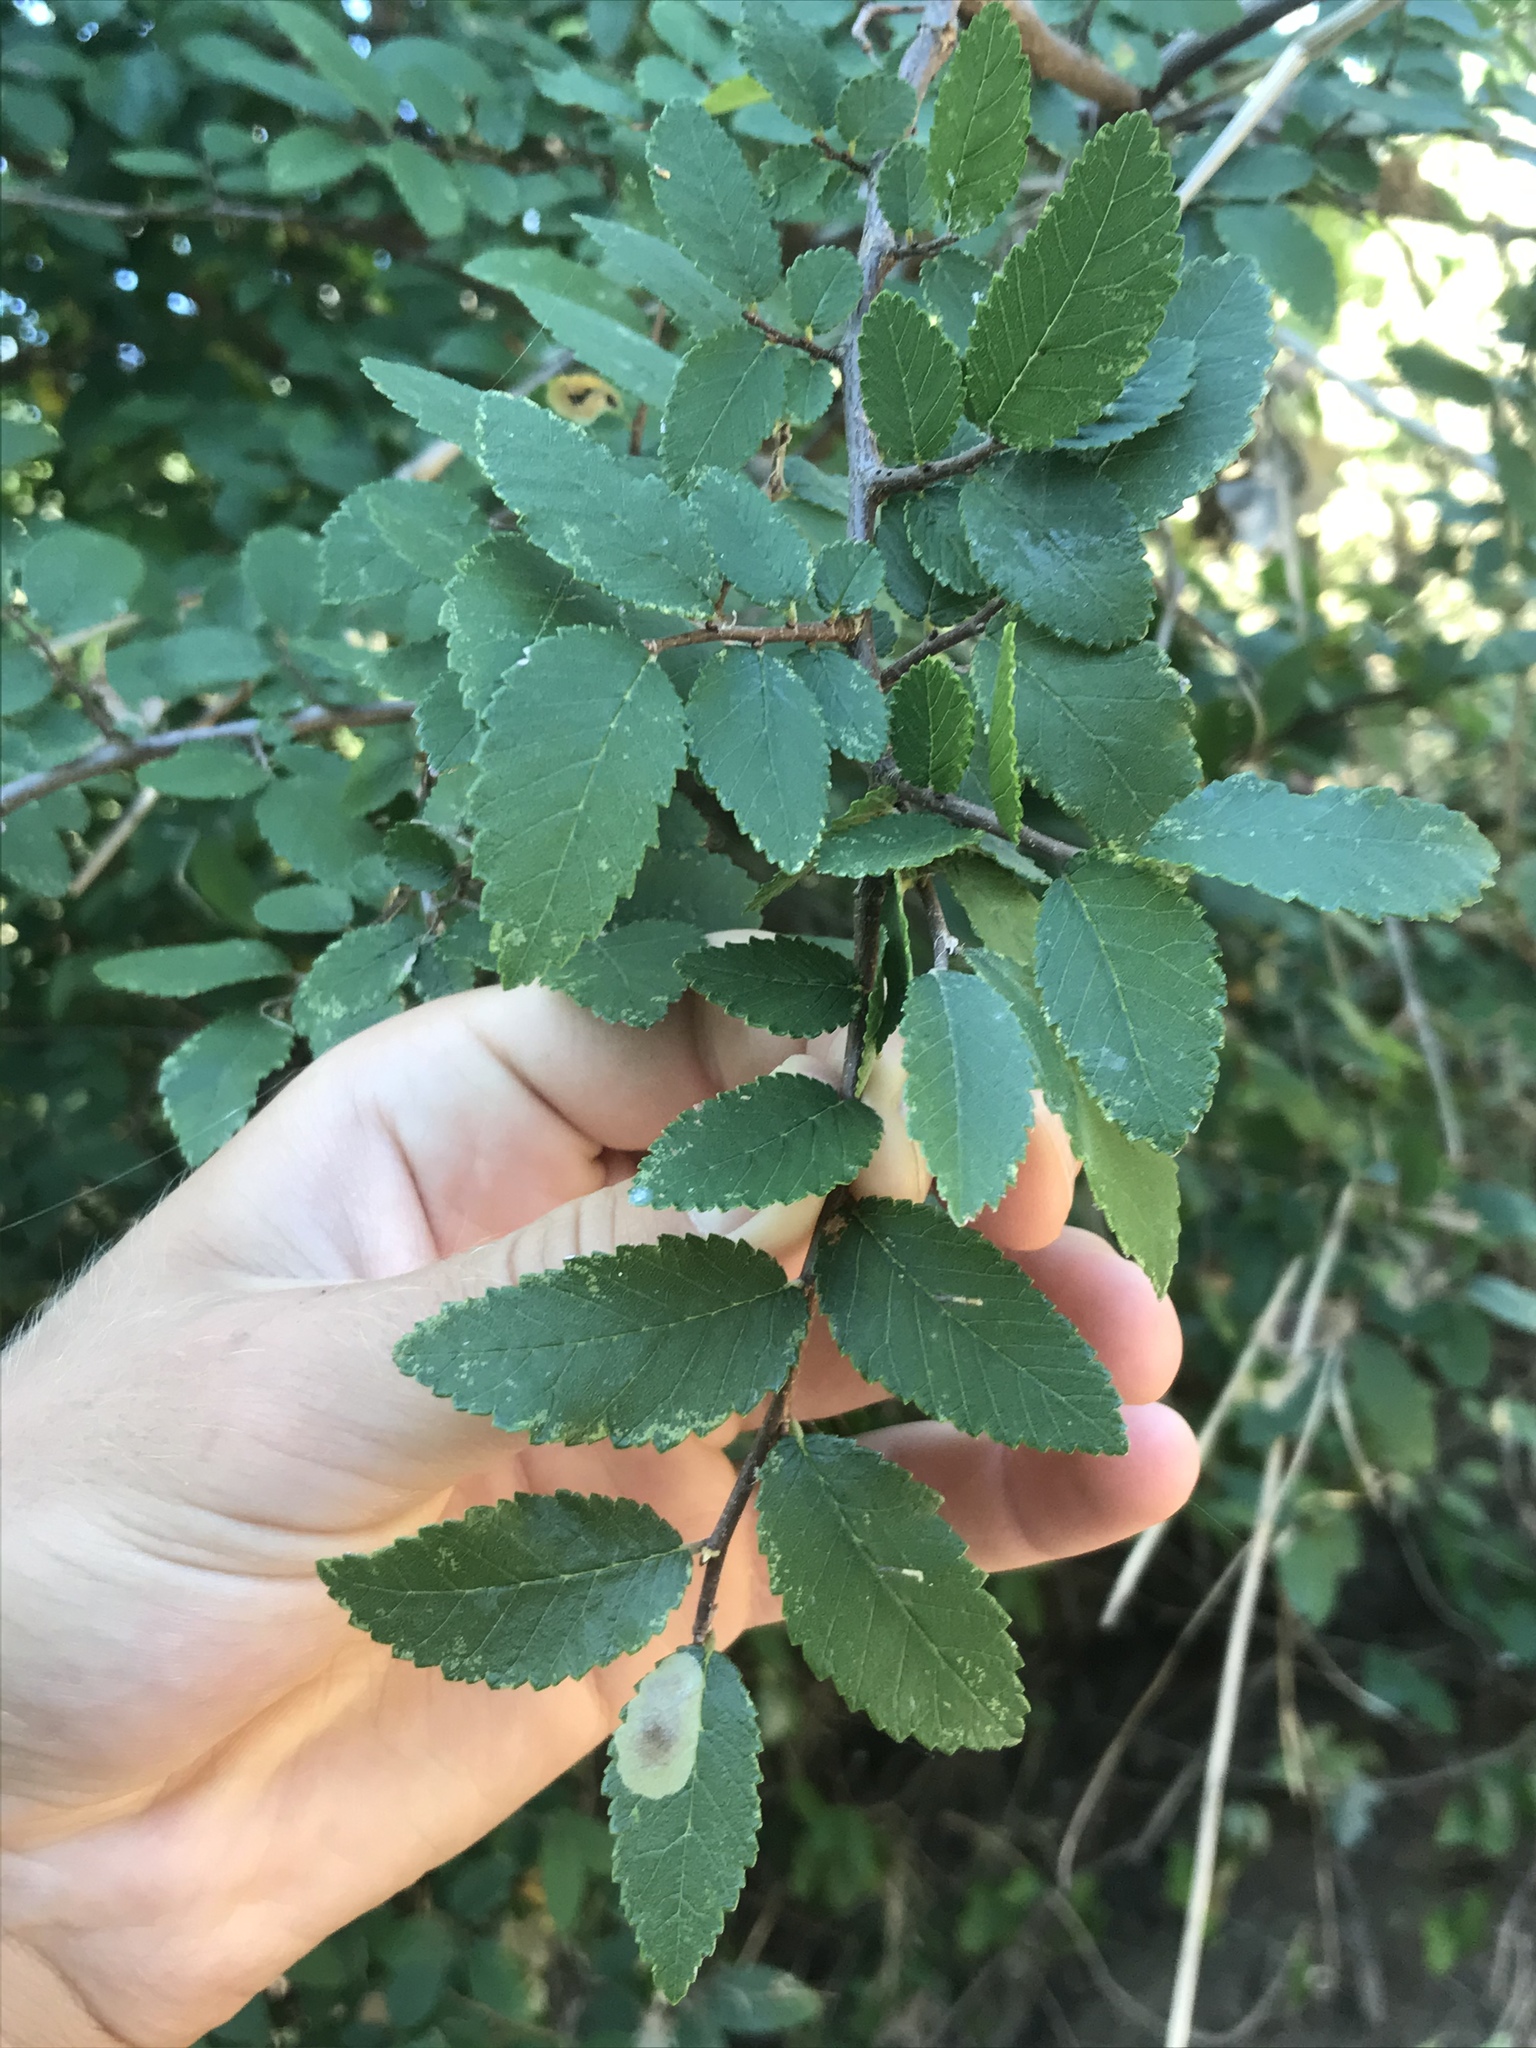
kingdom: Plantae
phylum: Tracheophyta
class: Magnoliopsida
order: Rosales
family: Ulmaceae
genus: Ulmus
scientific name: Ulmus crassifolia
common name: Basket elm
